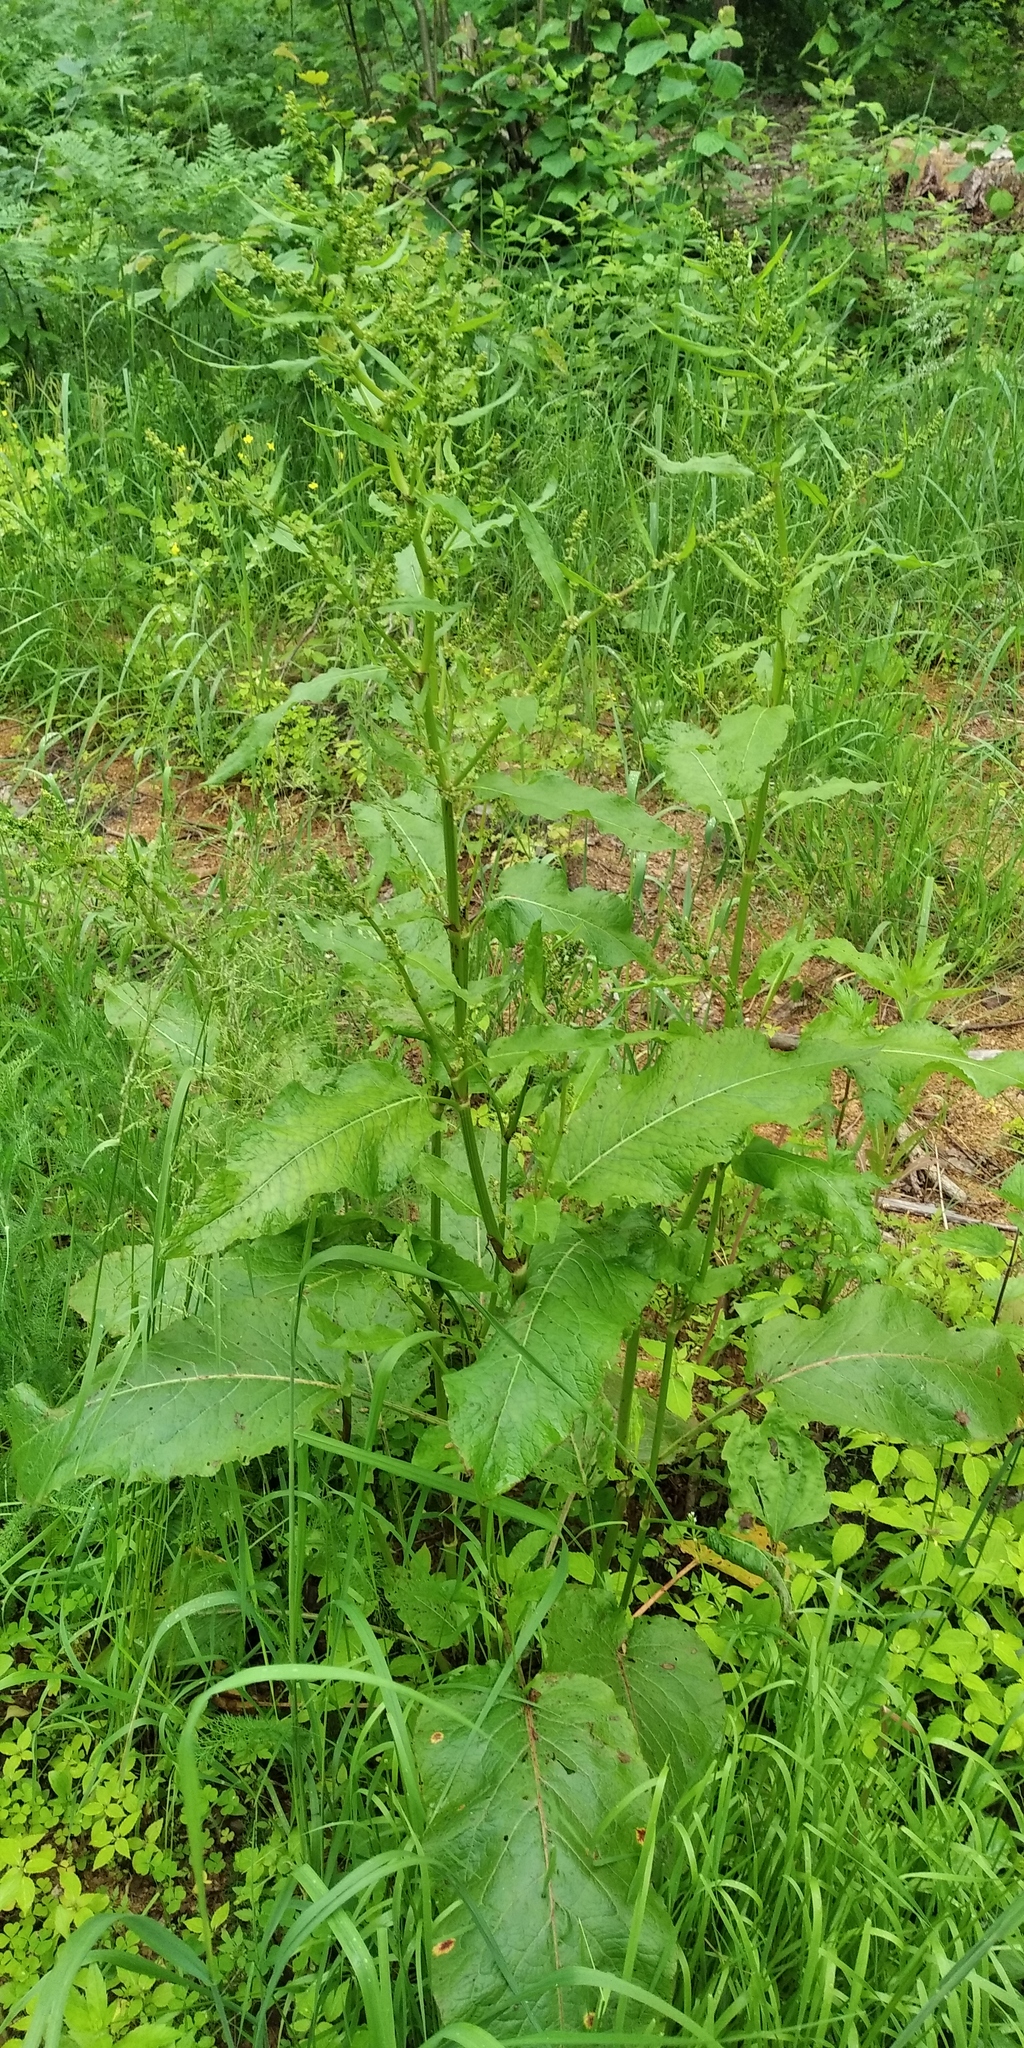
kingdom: Plantae
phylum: Tracheophyta
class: Magnoliopsida
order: Caryophyllales
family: Polygonaceae
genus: Rumex
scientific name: Rumex obtusifolius
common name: Bitter dock
